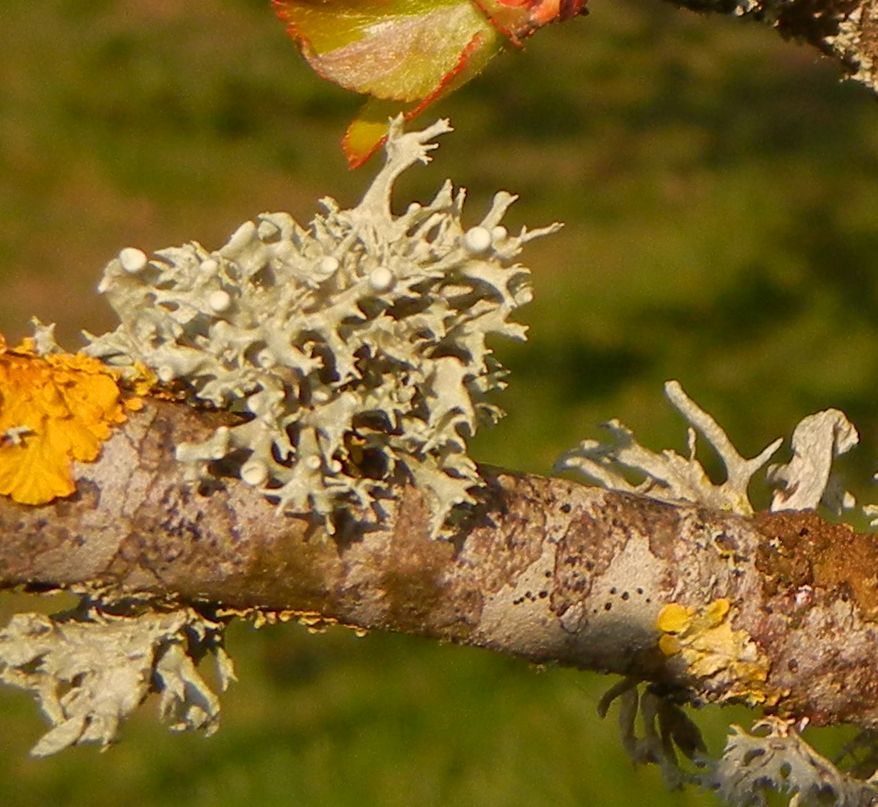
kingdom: Fungi
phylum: Ascomycota
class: Lecanoromycetes
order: Lecanorales
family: Ramalinaceae
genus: Ramalina
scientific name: Ramalina fastigiata
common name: Dotted ribbon lichen
